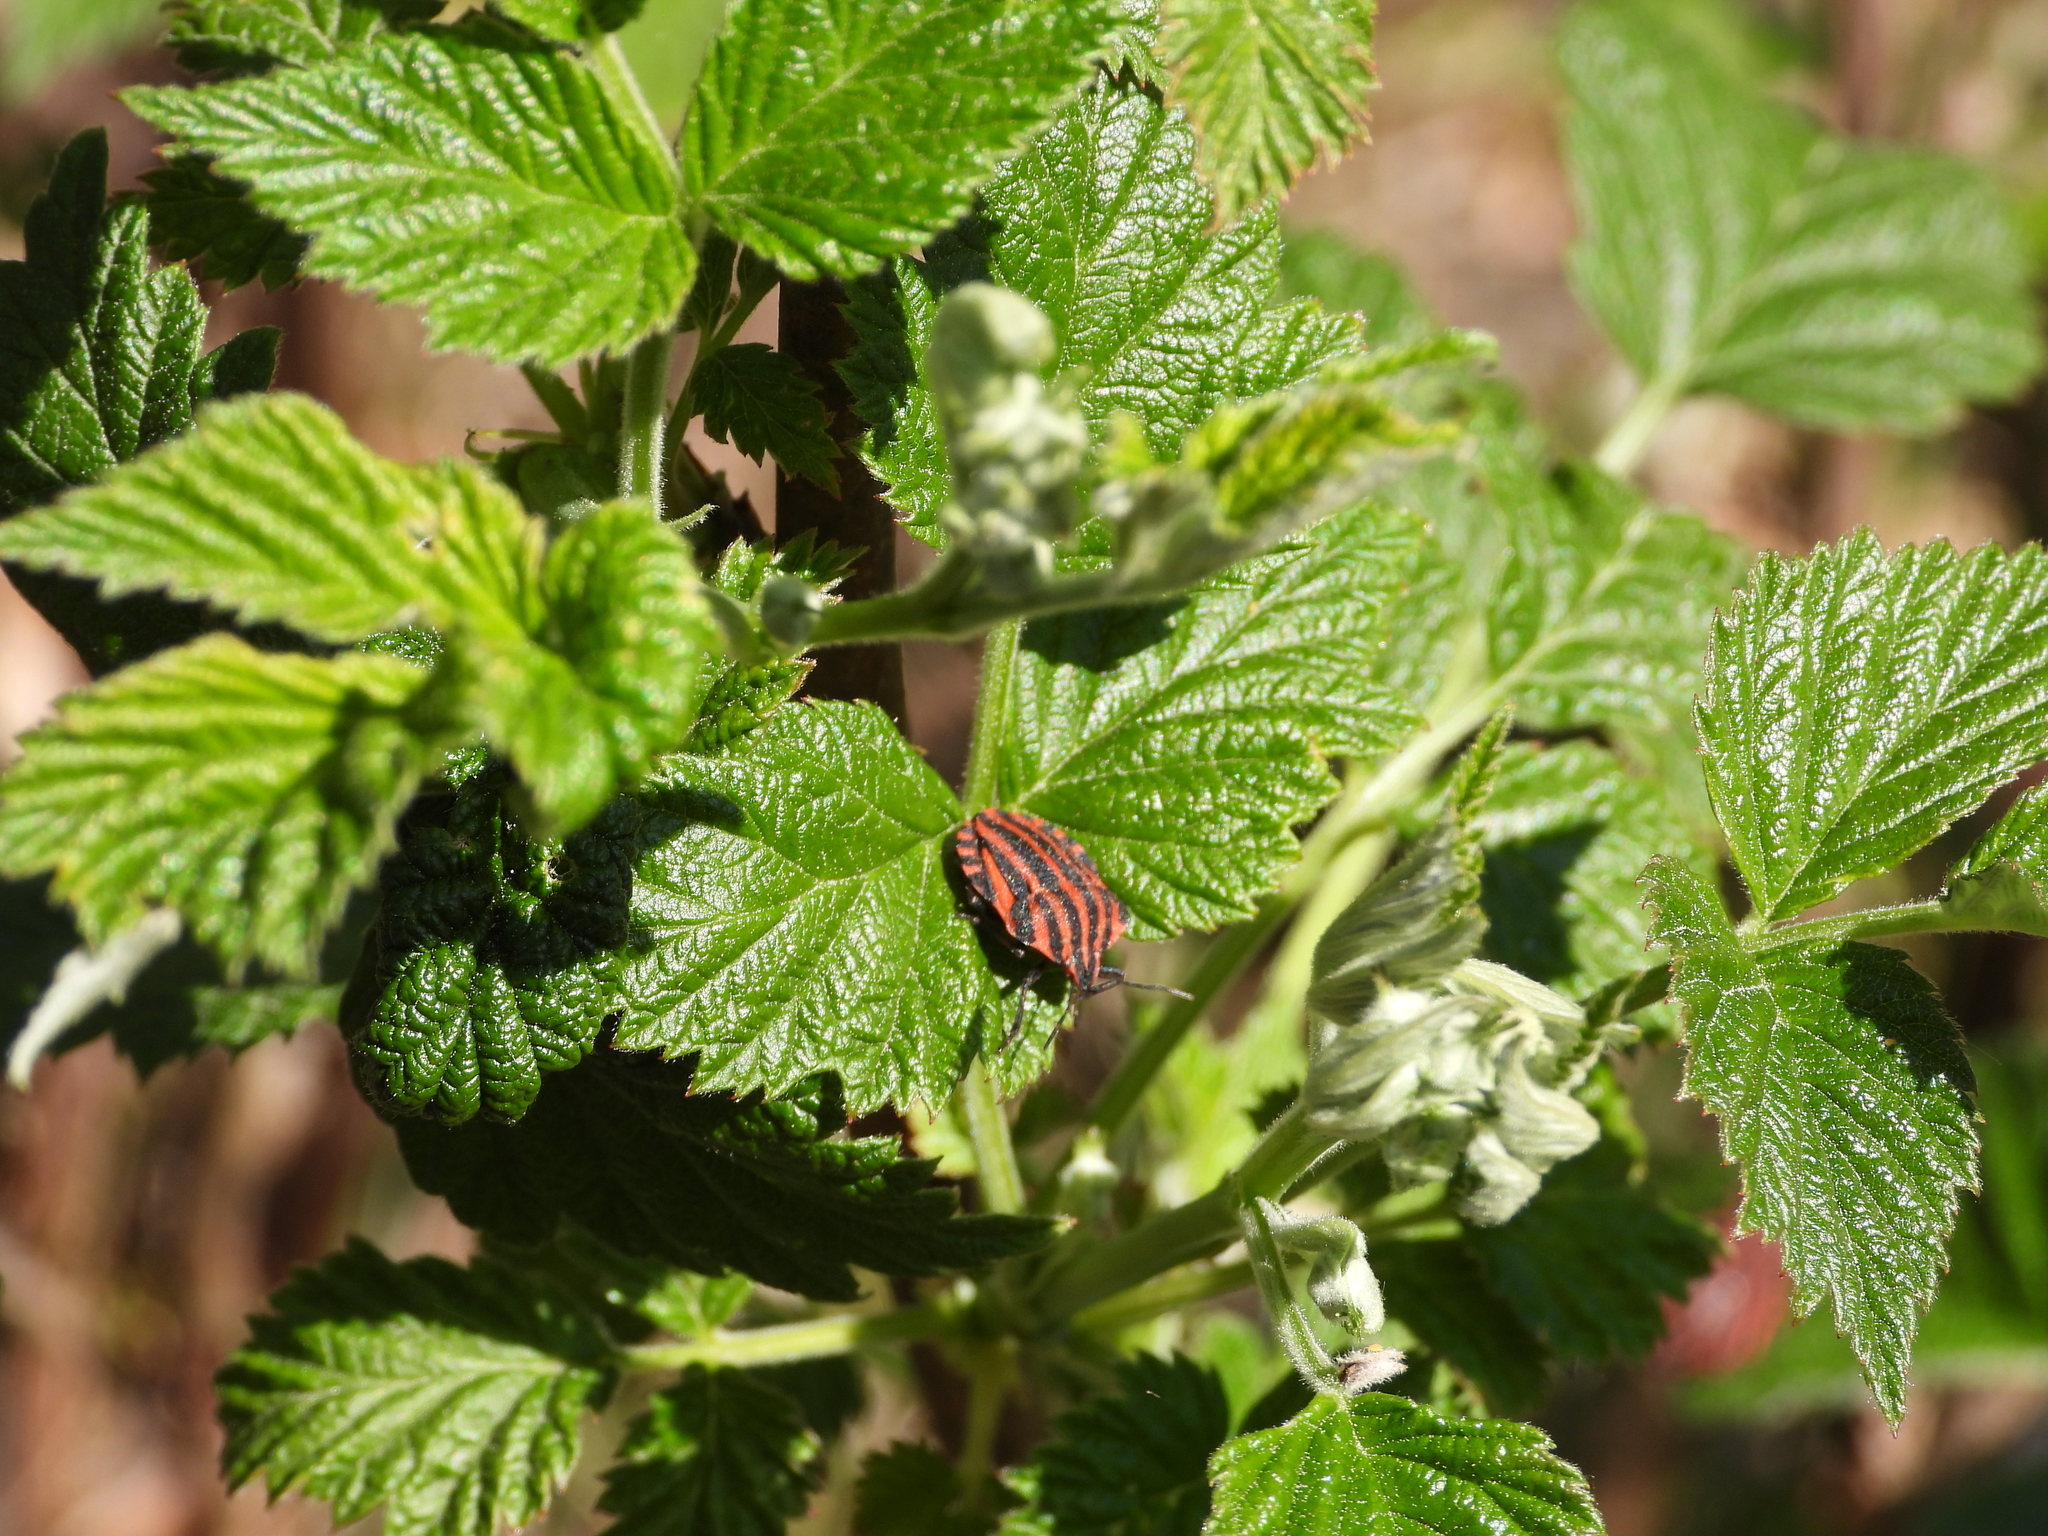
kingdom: Animalia
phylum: Arthropoda
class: Insecta
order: Hemiptera
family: Pentatomidae
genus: Graphosoma
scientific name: Graphosoma italicum
